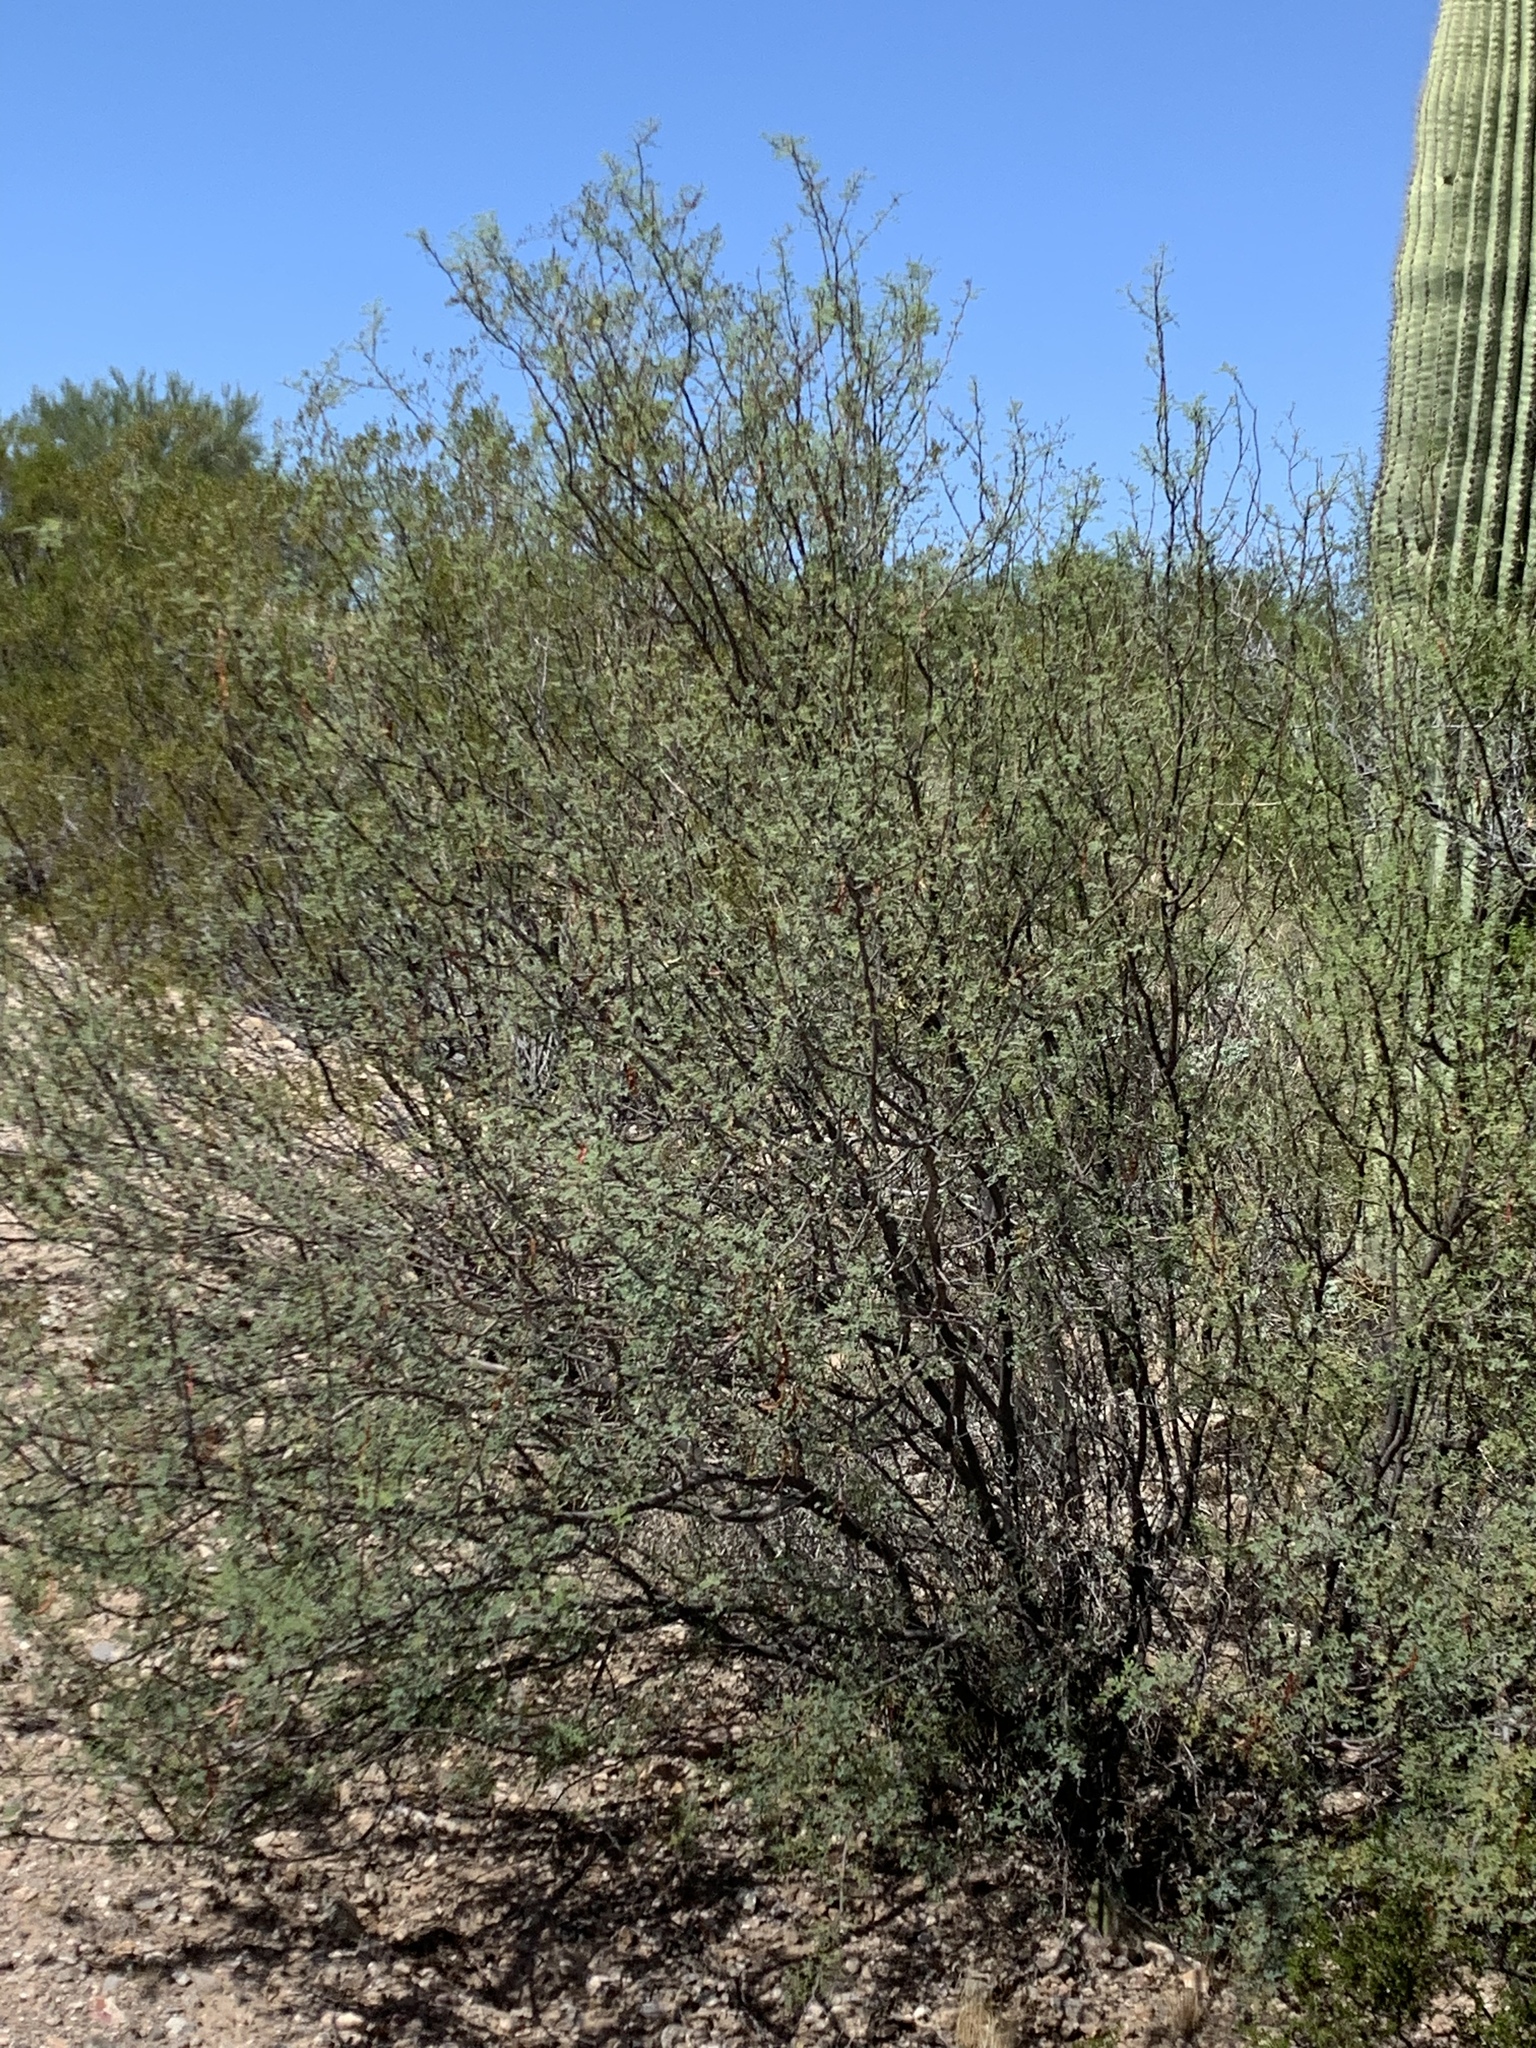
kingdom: Plantae
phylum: Tracheophyta
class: Magnoliopsida
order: Fabales
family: Fabaceae
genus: Vachellia
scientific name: Vachellia constricta
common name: Mescat acacia
